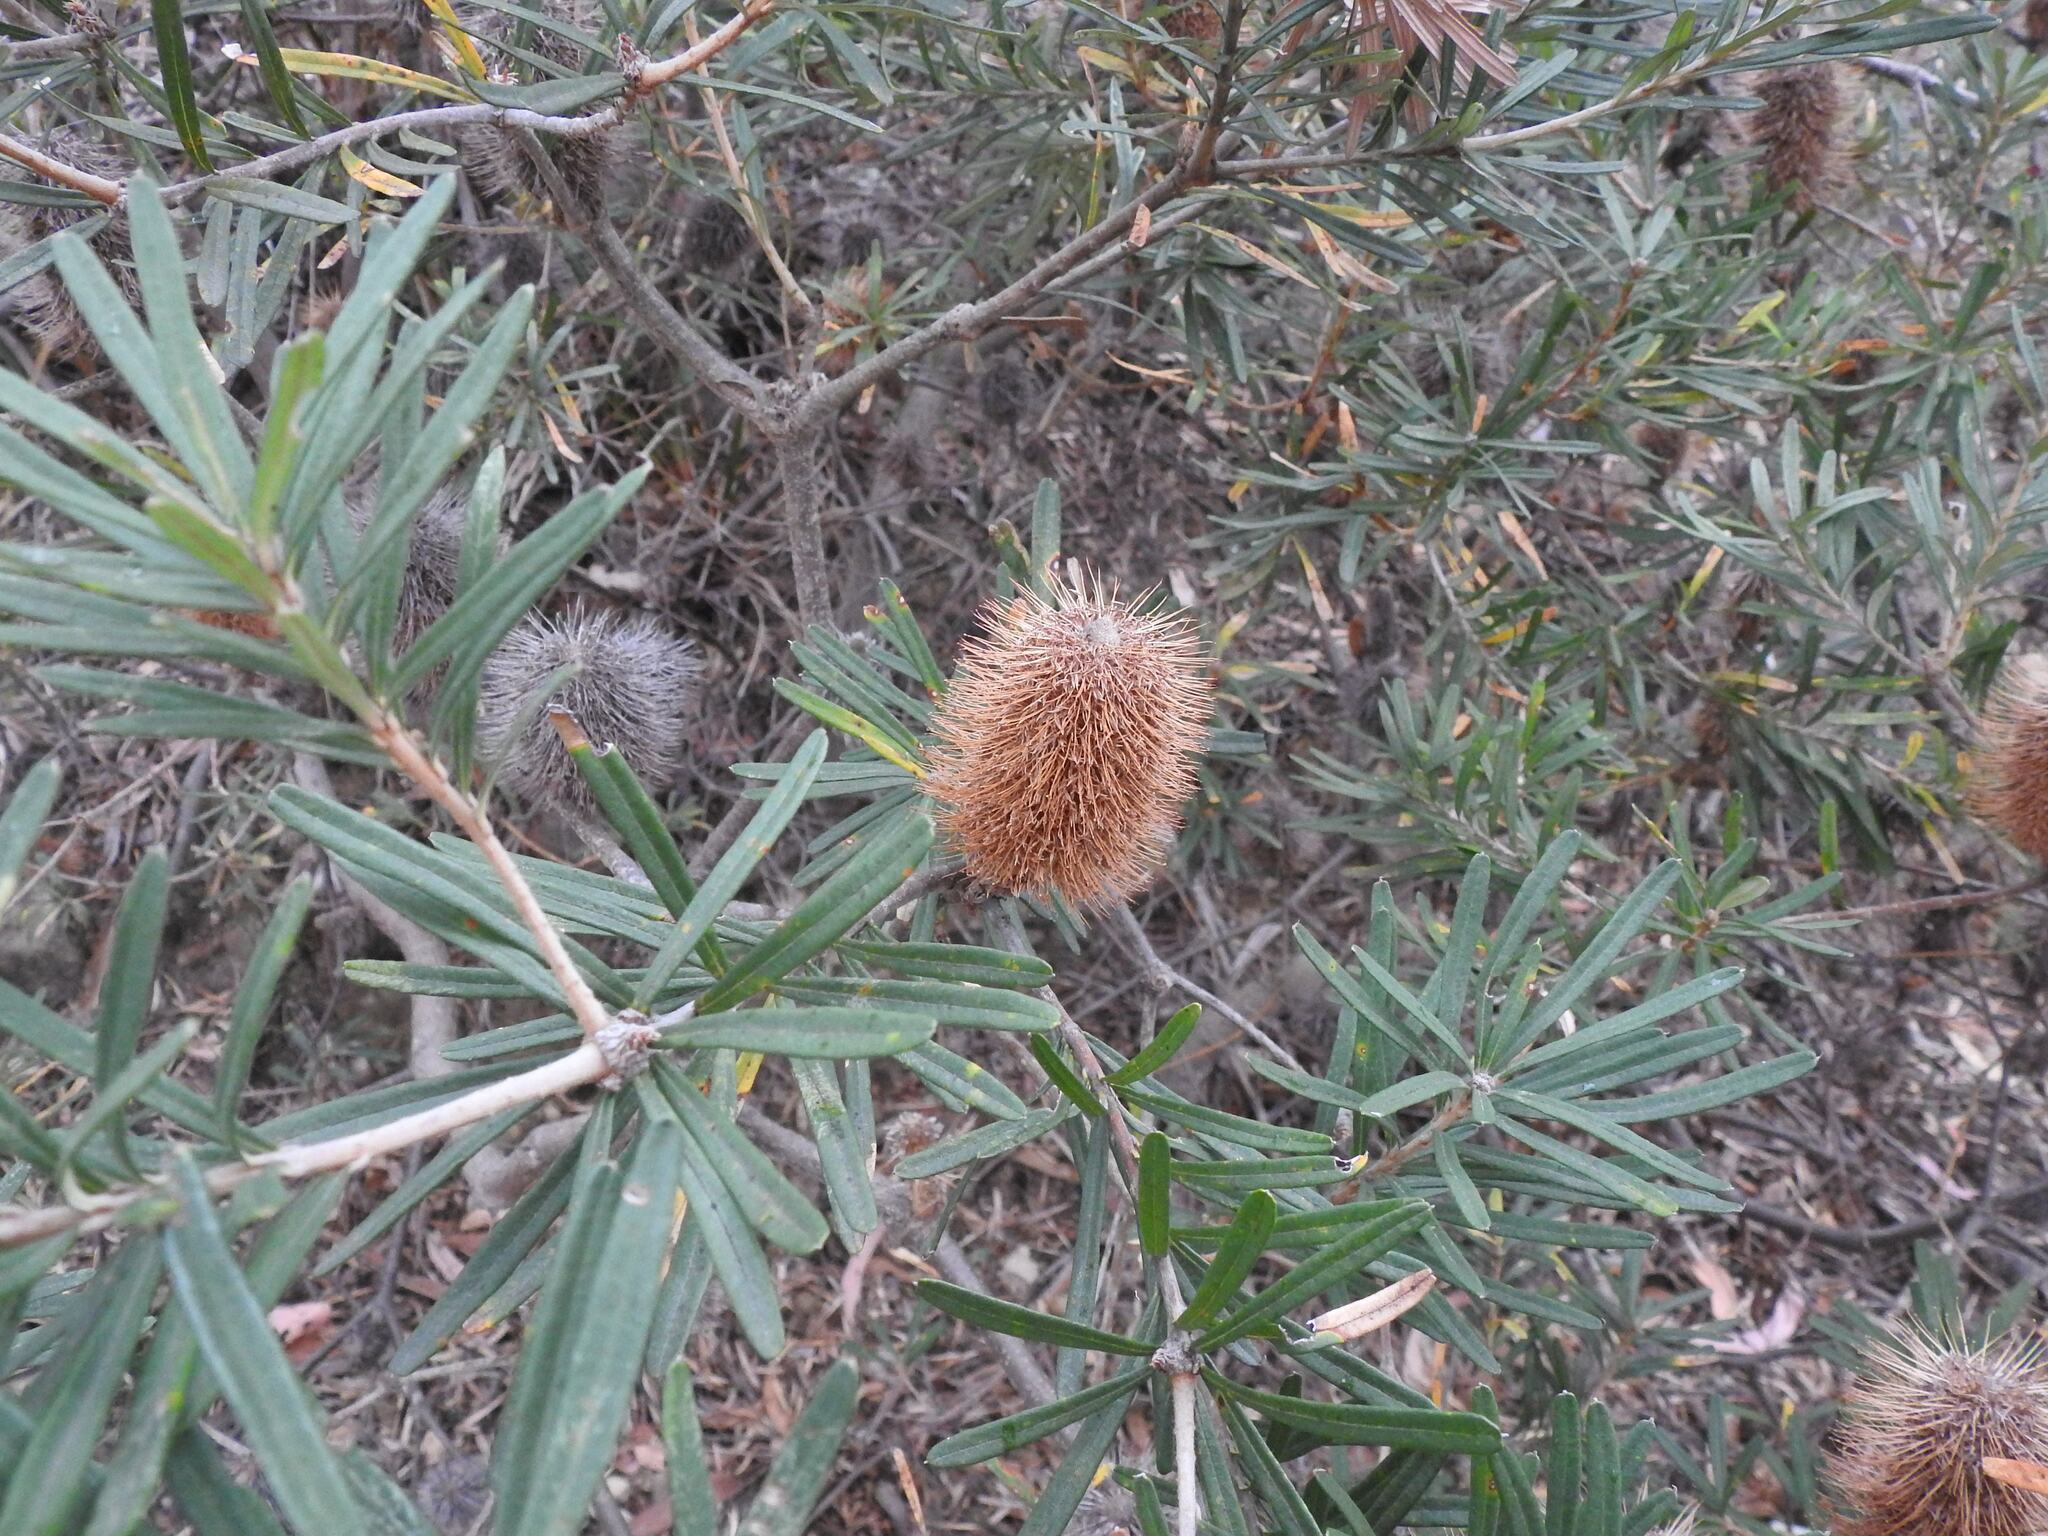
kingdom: Plantae
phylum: Tracheophyta
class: Magnoliopsida
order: Proteales
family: Proteaceae
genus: Banksia
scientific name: Banksia marginata
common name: Silver banksia
